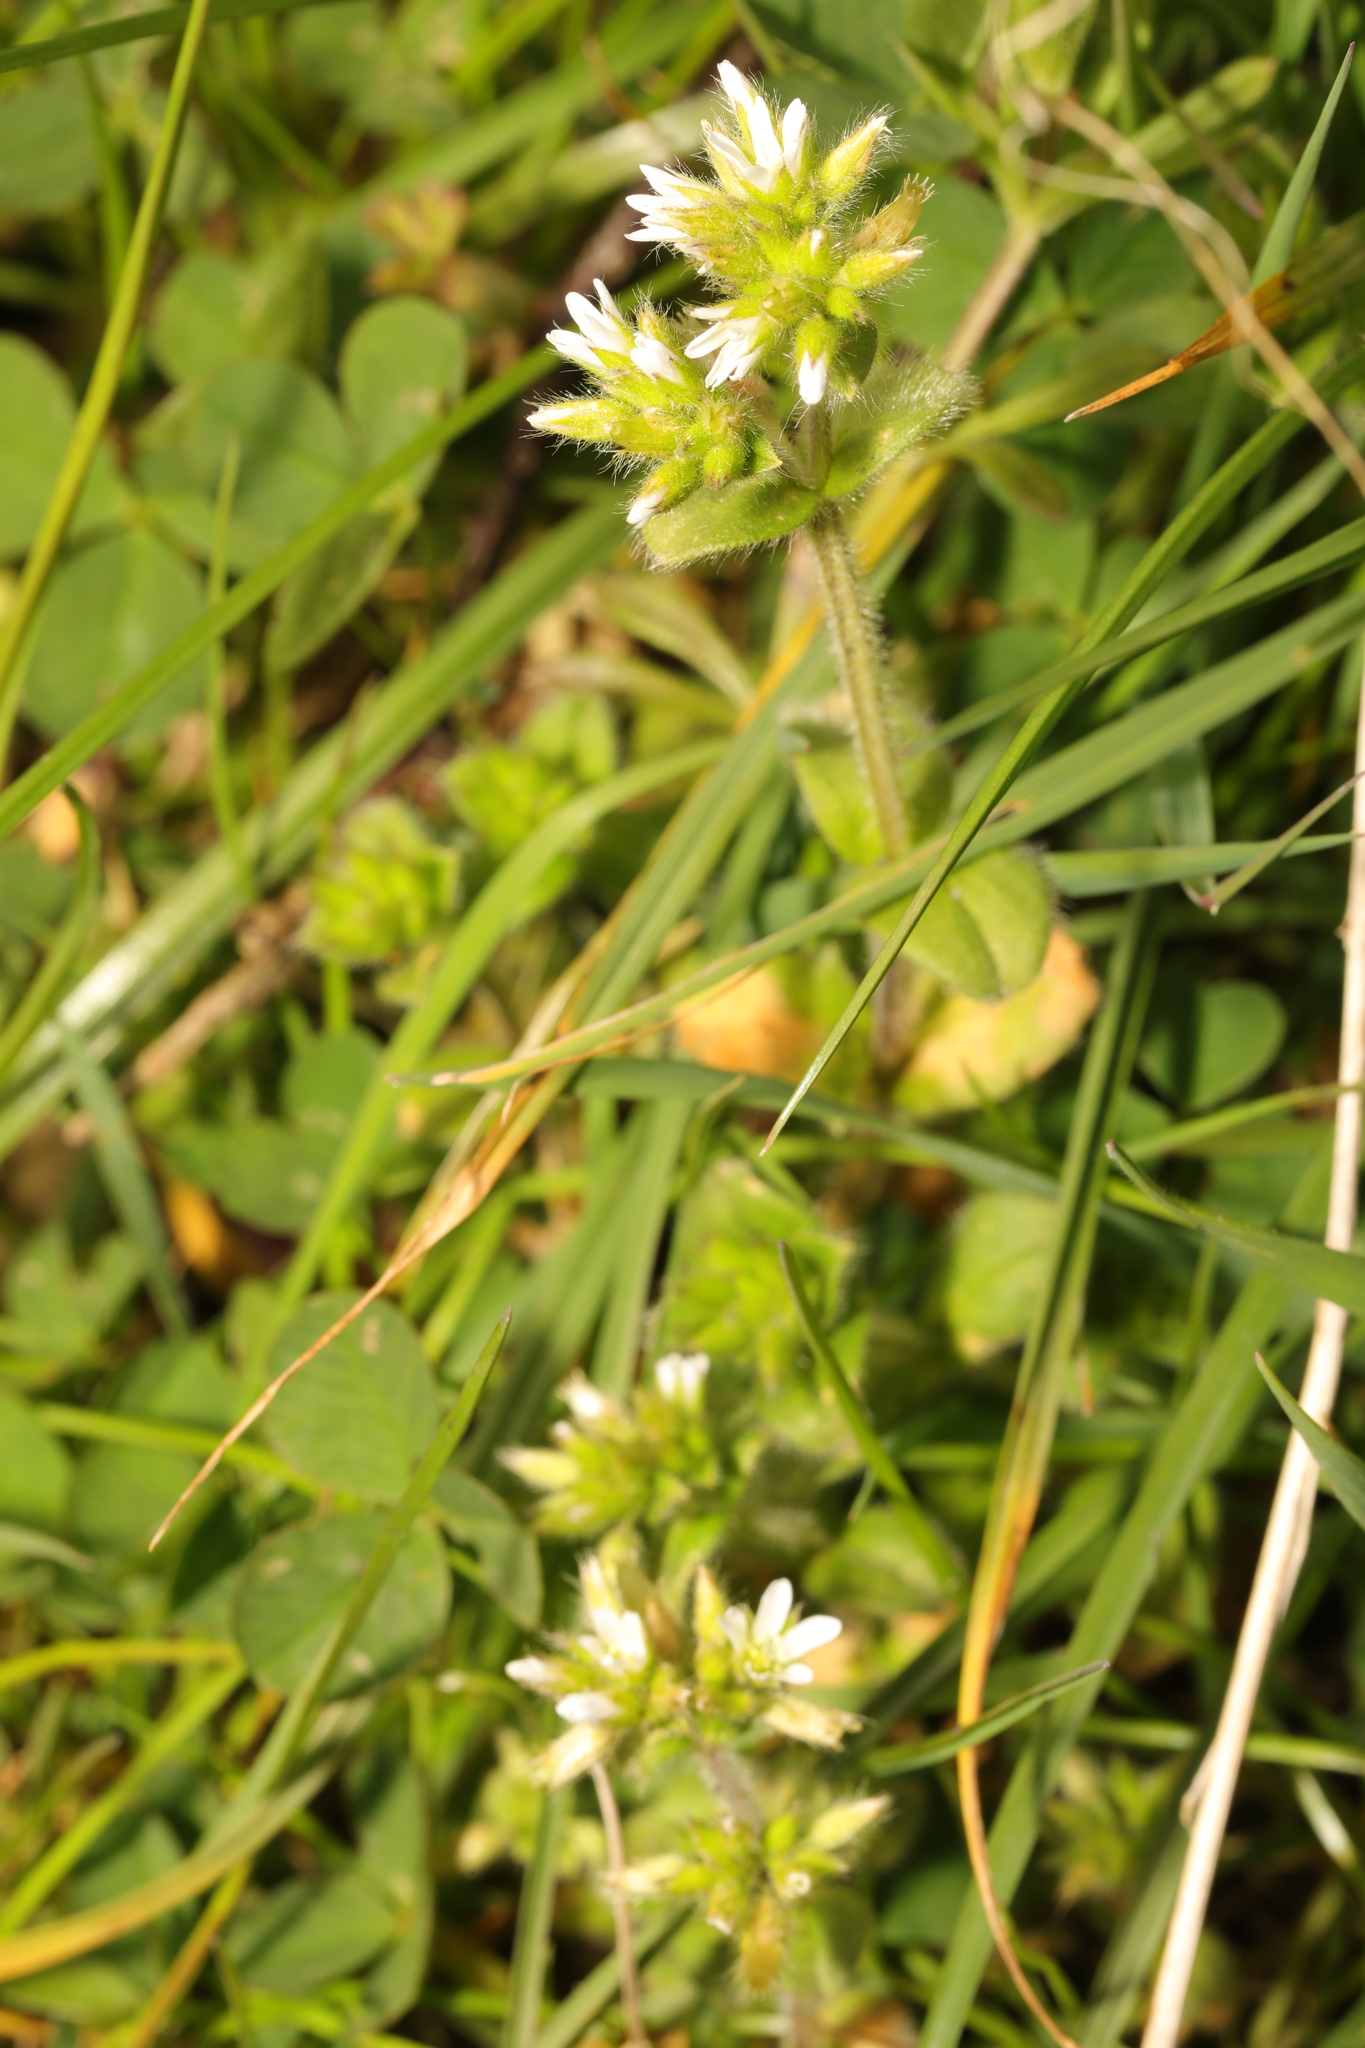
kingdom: Plantae
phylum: Tracheophyta
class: Magnoliopsida
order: Caryophyllales
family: Caryophyllaceae
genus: Cerastium
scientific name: Cerastium glomeratum
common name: Sticky chickweed
